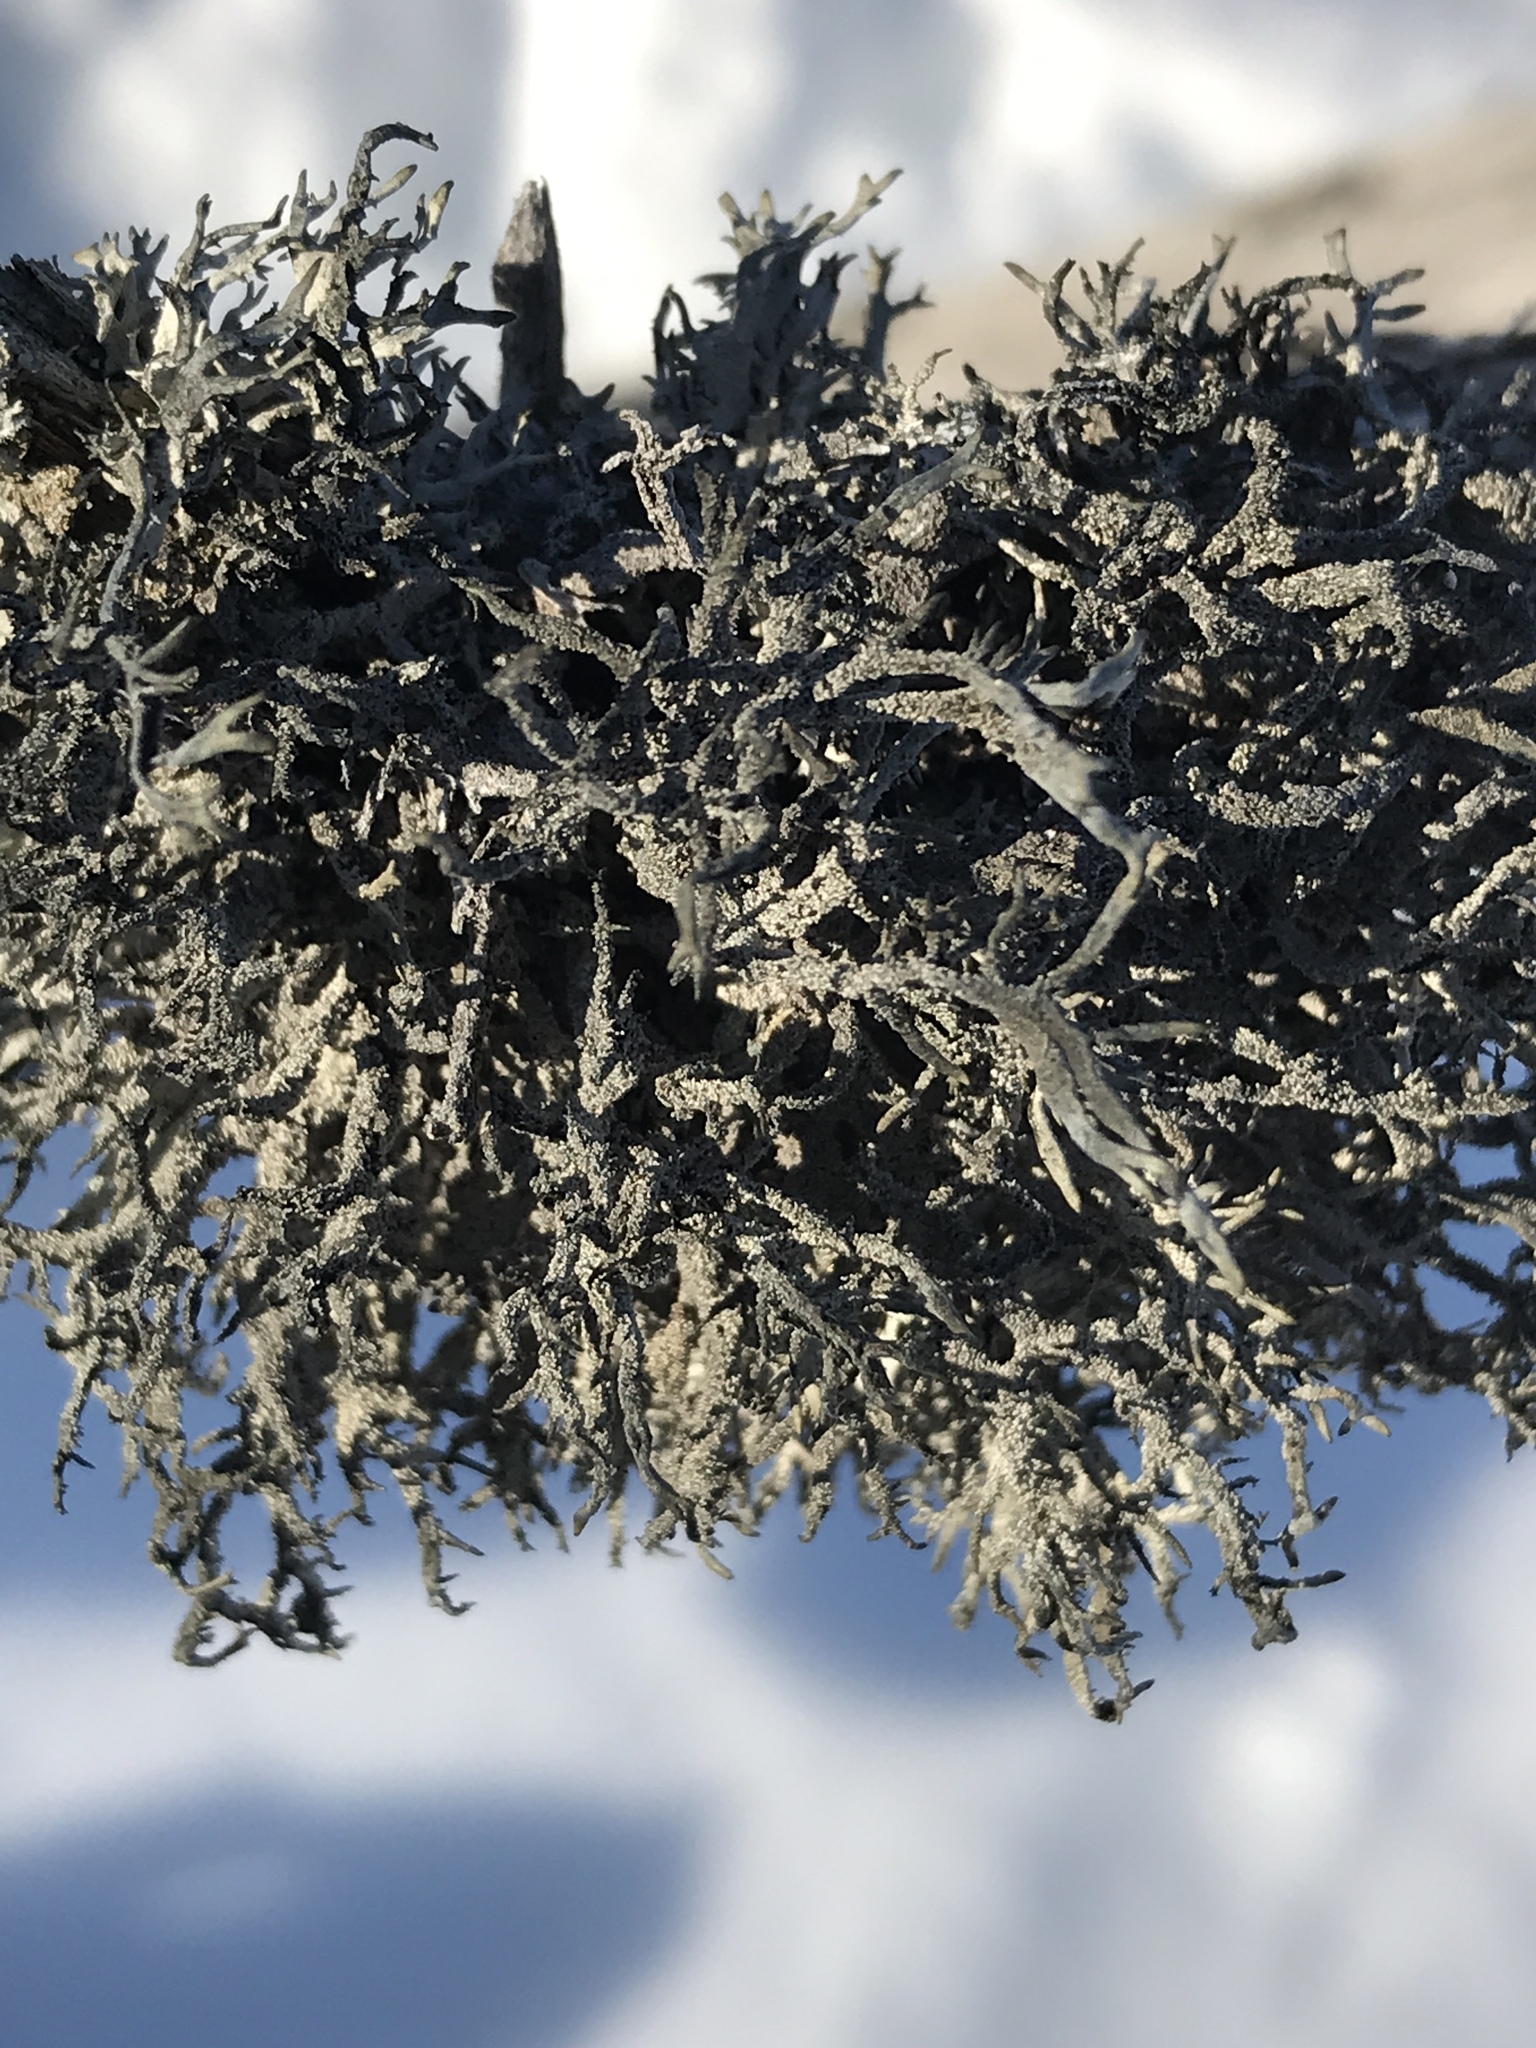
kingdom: Fungi
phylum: Ascomycota
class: Lecanoromycetes
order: Lecanorales
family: Parmeliaceae
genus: Pseudevernia
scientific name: Pseudevernia consocians
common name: Common antler lichen
